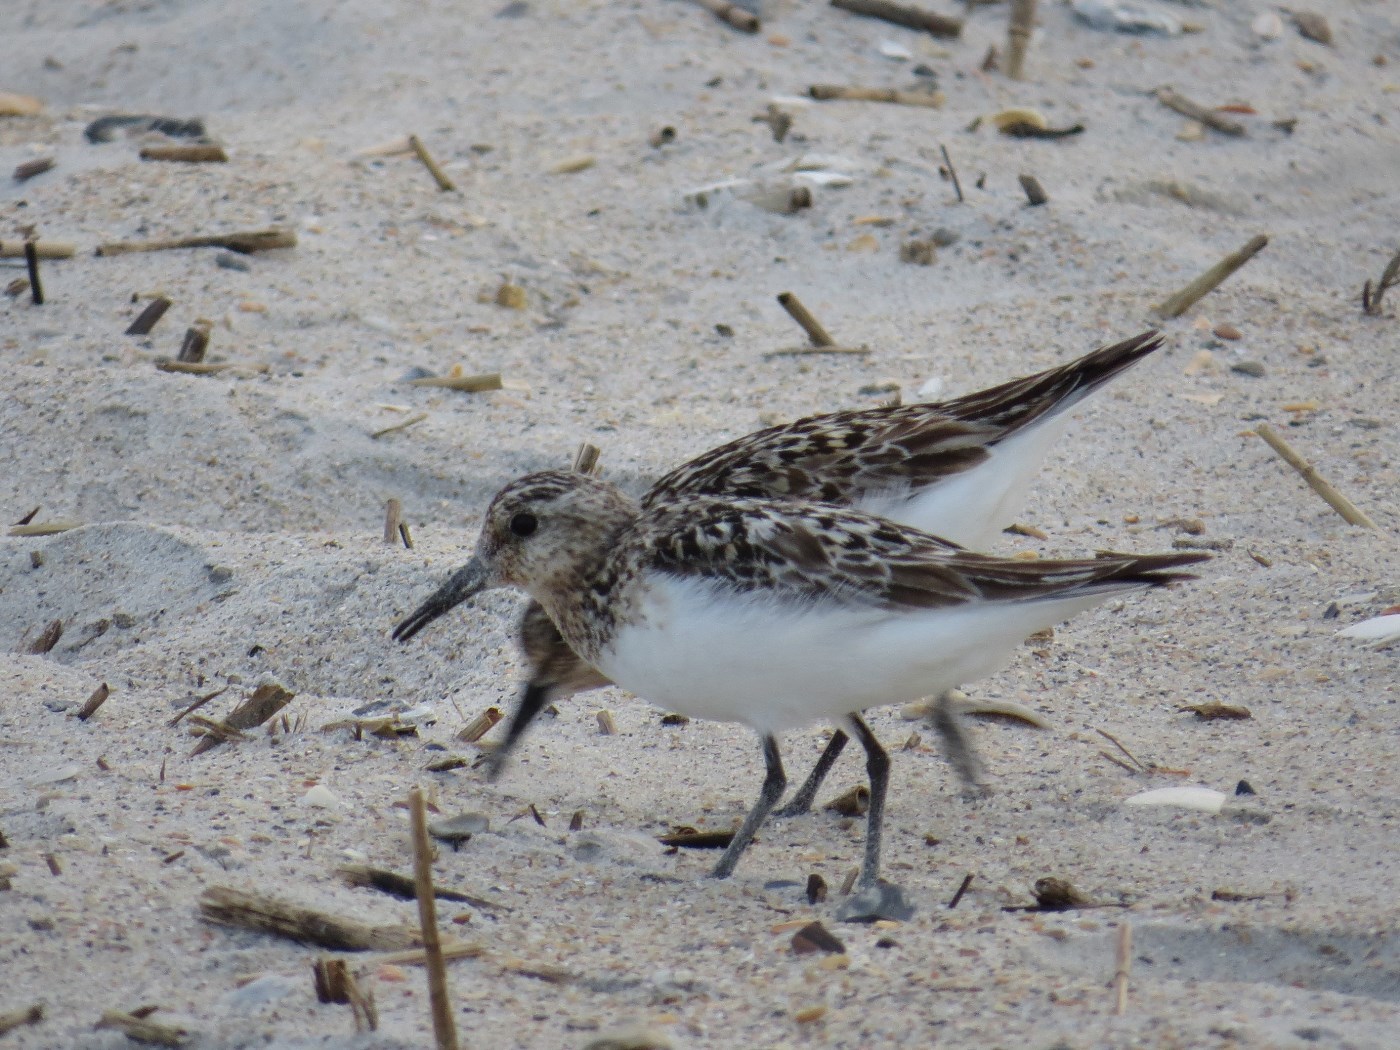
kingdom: Animalia
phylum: Chordata
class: Aves
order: Charadriiformes
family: Scolopacidae
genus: Calidris
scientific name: Calidris alba
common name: Sanderling
